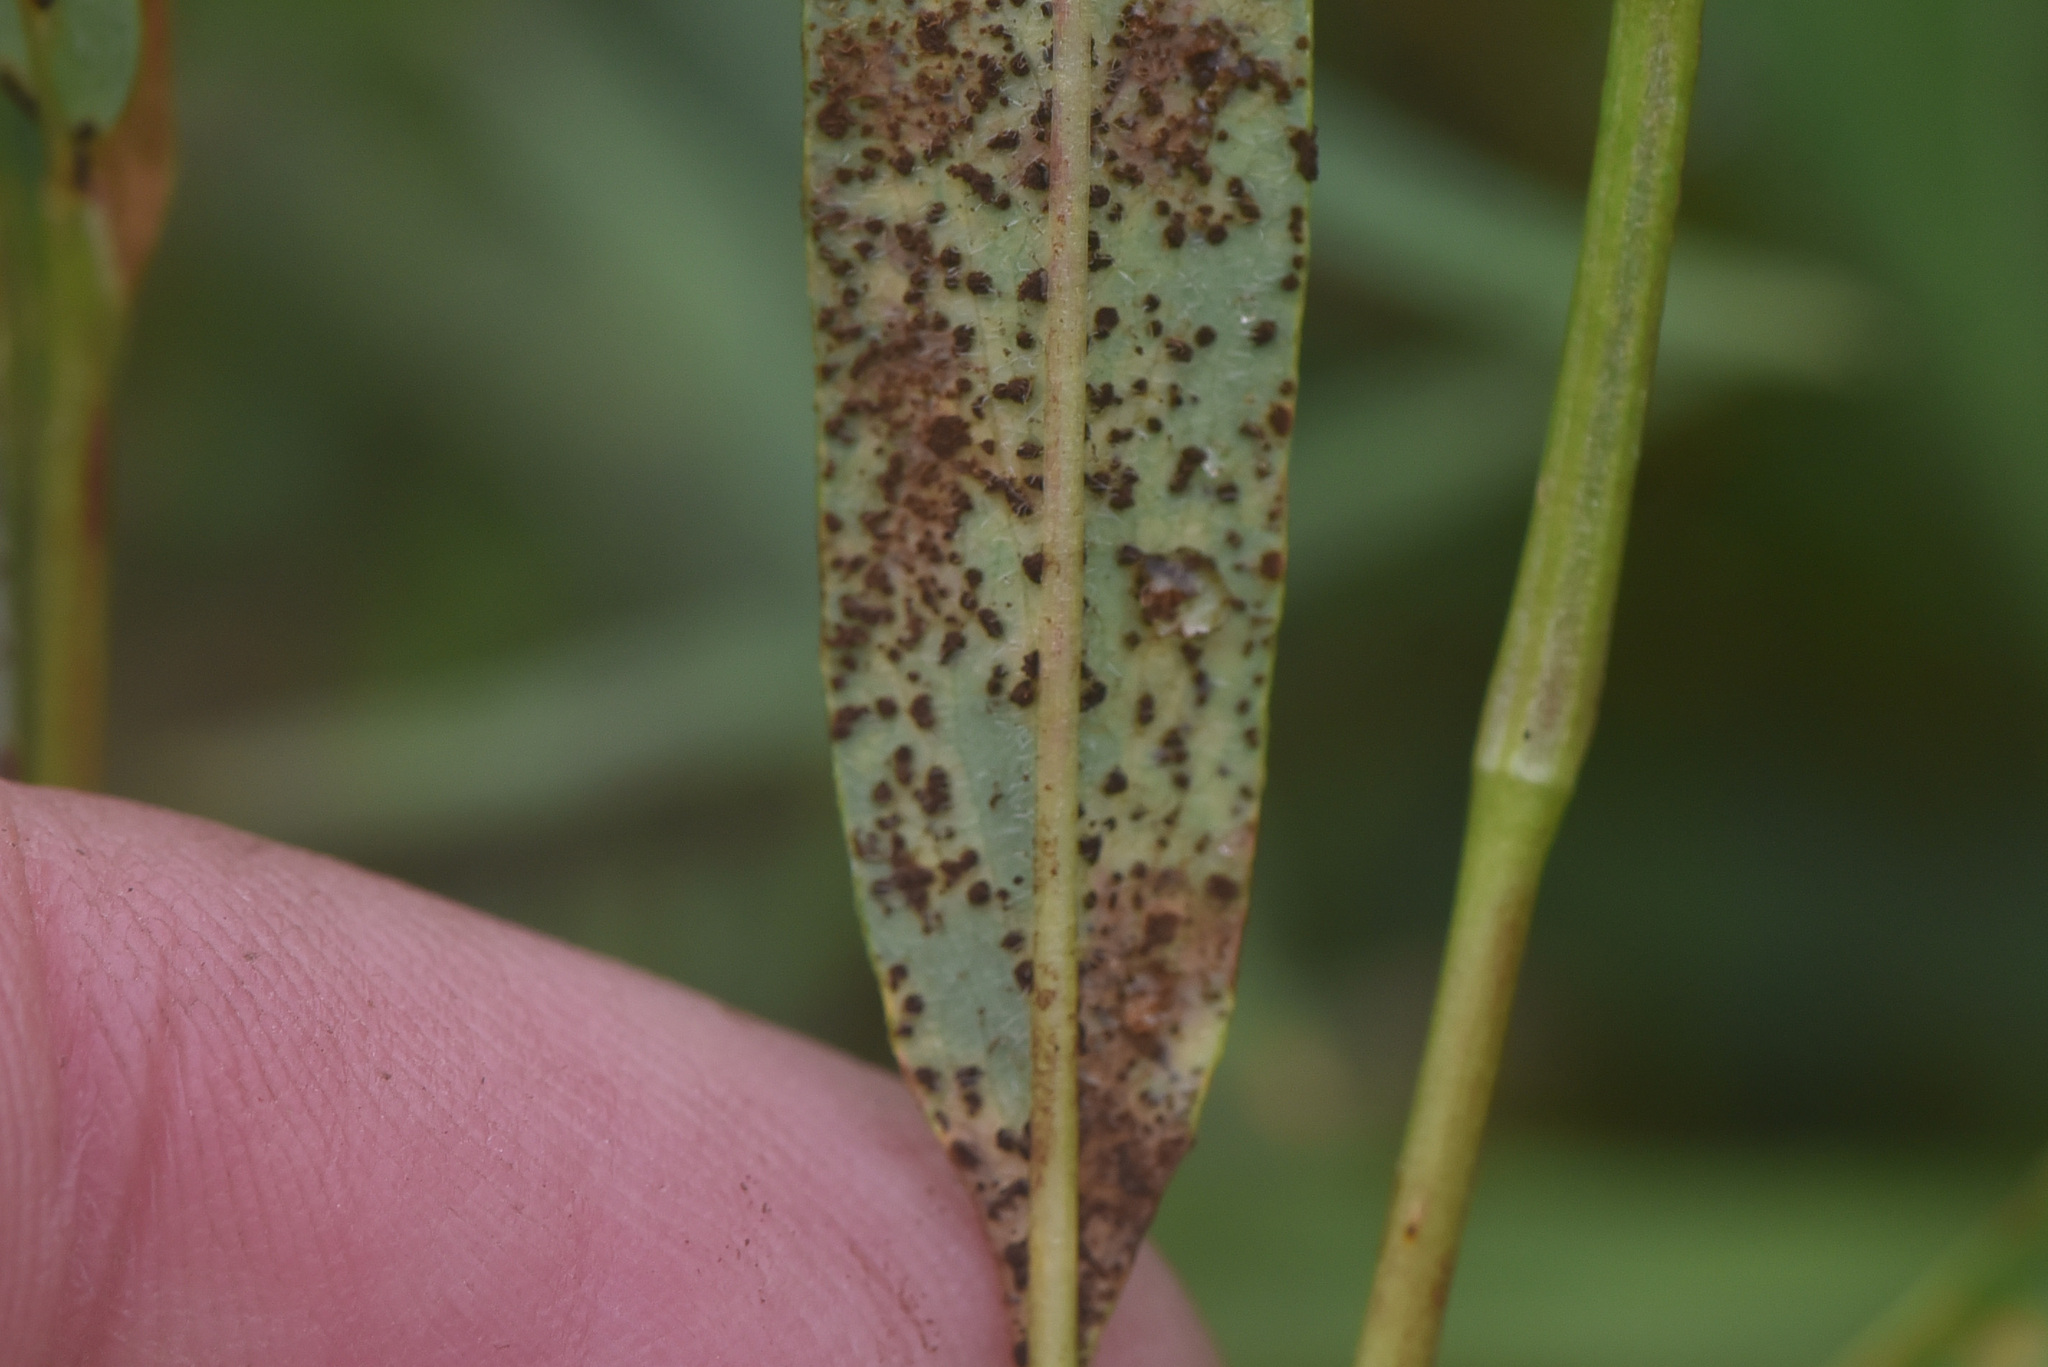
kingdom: Plantae
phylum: Tracheophyta
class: Magnoliopsida
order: Caryophyllales
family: Polygonaceae
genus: Bistorta
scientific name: Bistorta vivipara
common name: Alpine bistort
